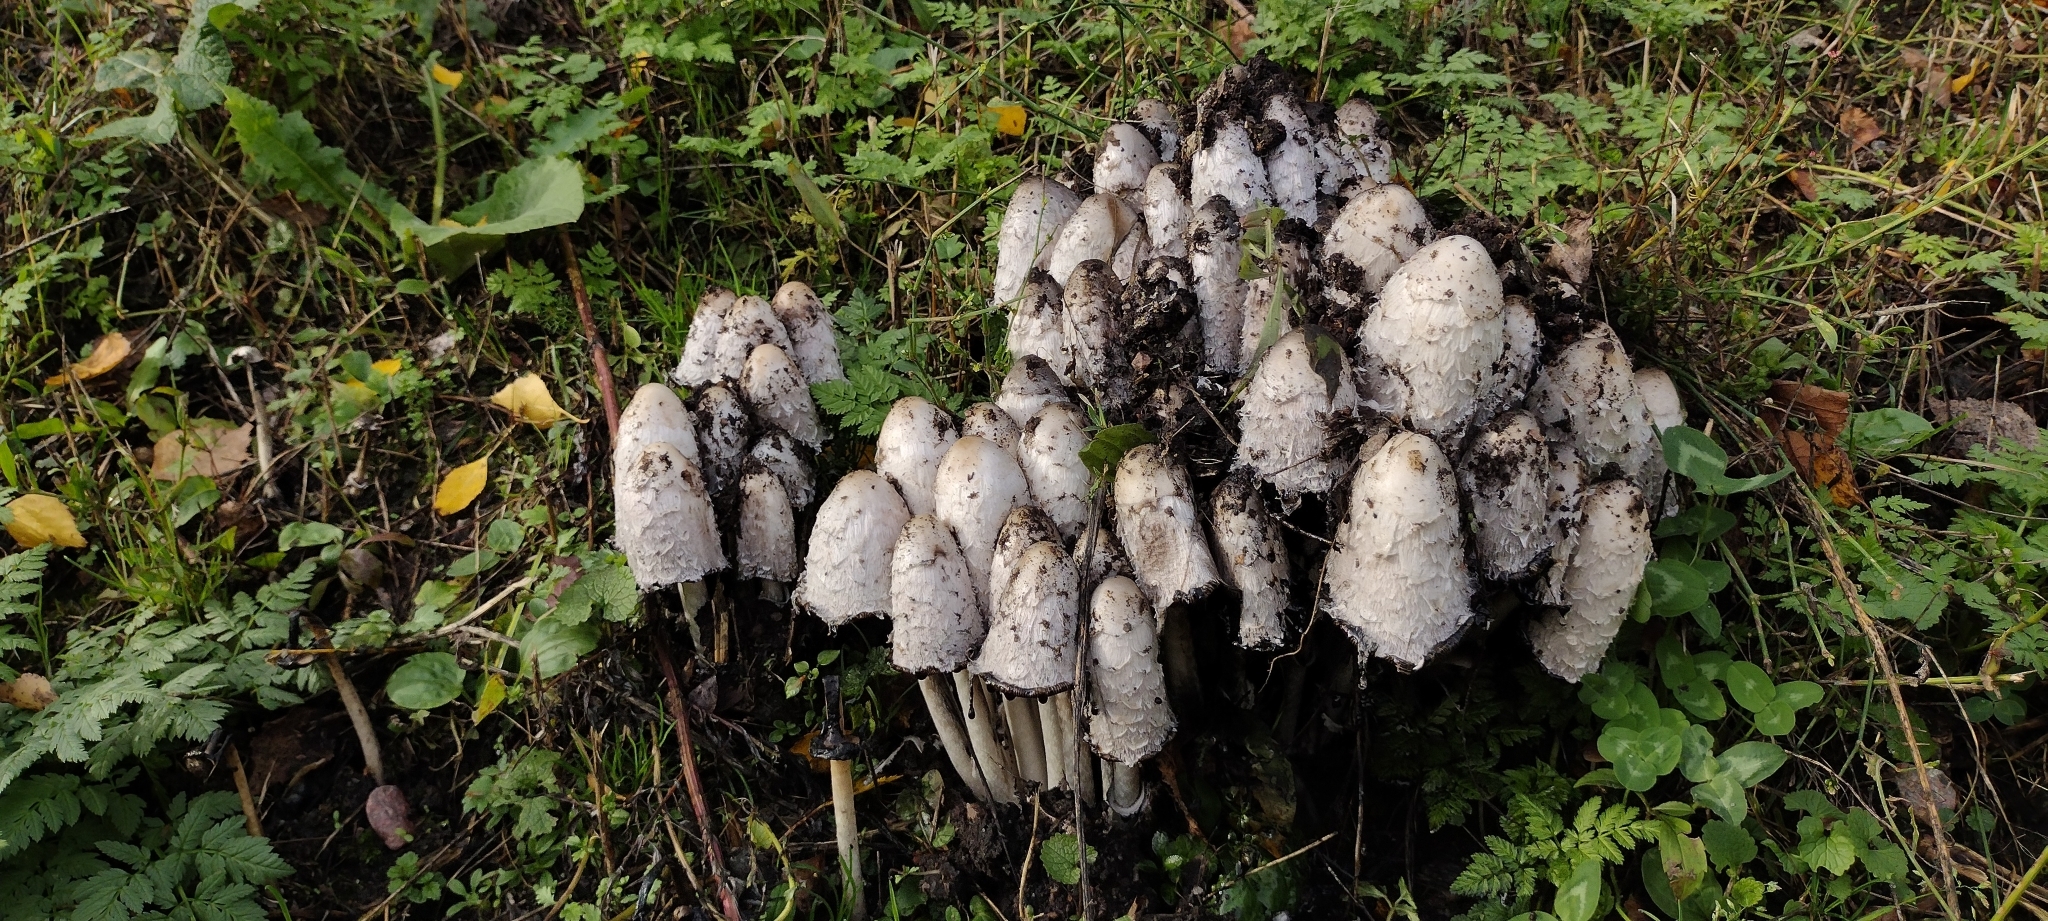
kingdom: Fungi
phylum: Basidiomycota
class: Agaricomycetes
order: Agaricales
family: Agaricaceae
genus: Coprinus
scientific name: Coprinus comatus
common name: Lawyer's wig
